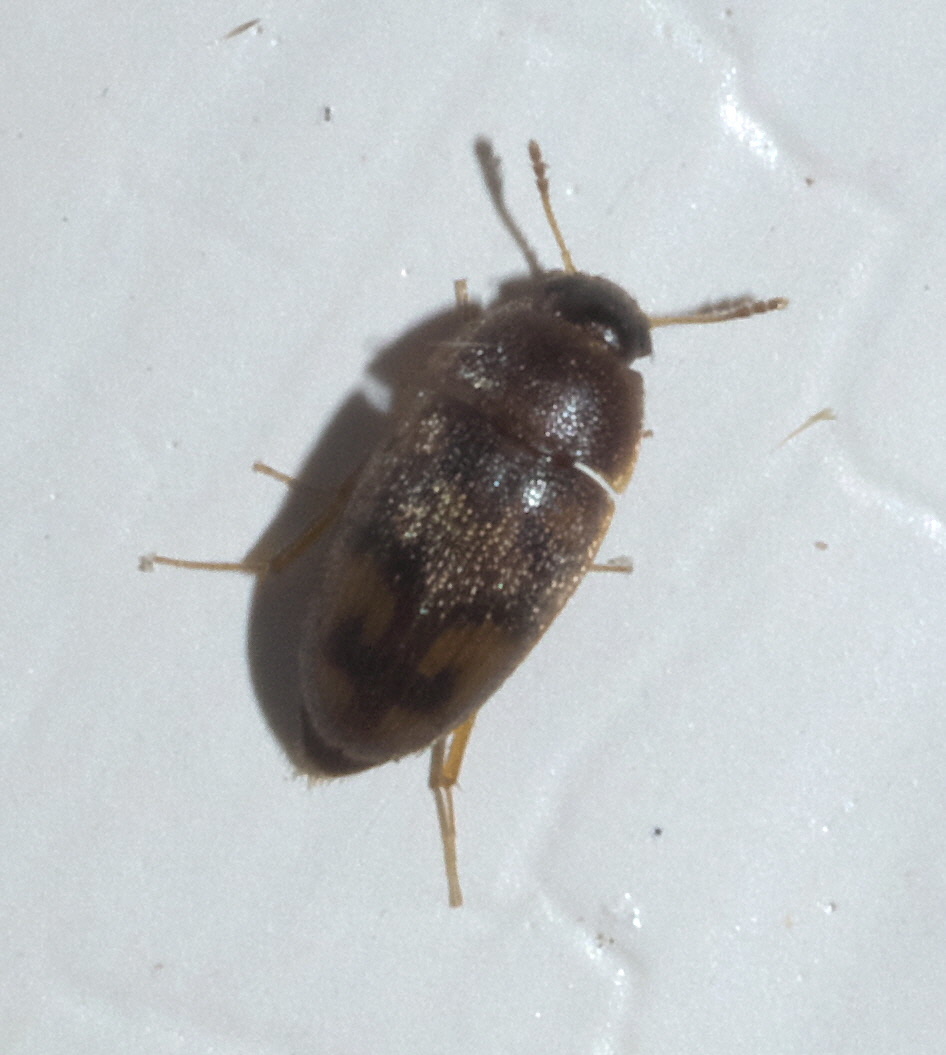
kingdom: Animalia
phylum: Arthropoda
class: Insecta
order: Coleoptera
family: Mycetophagidae
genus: Litargus
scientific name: Litargus vestitus
